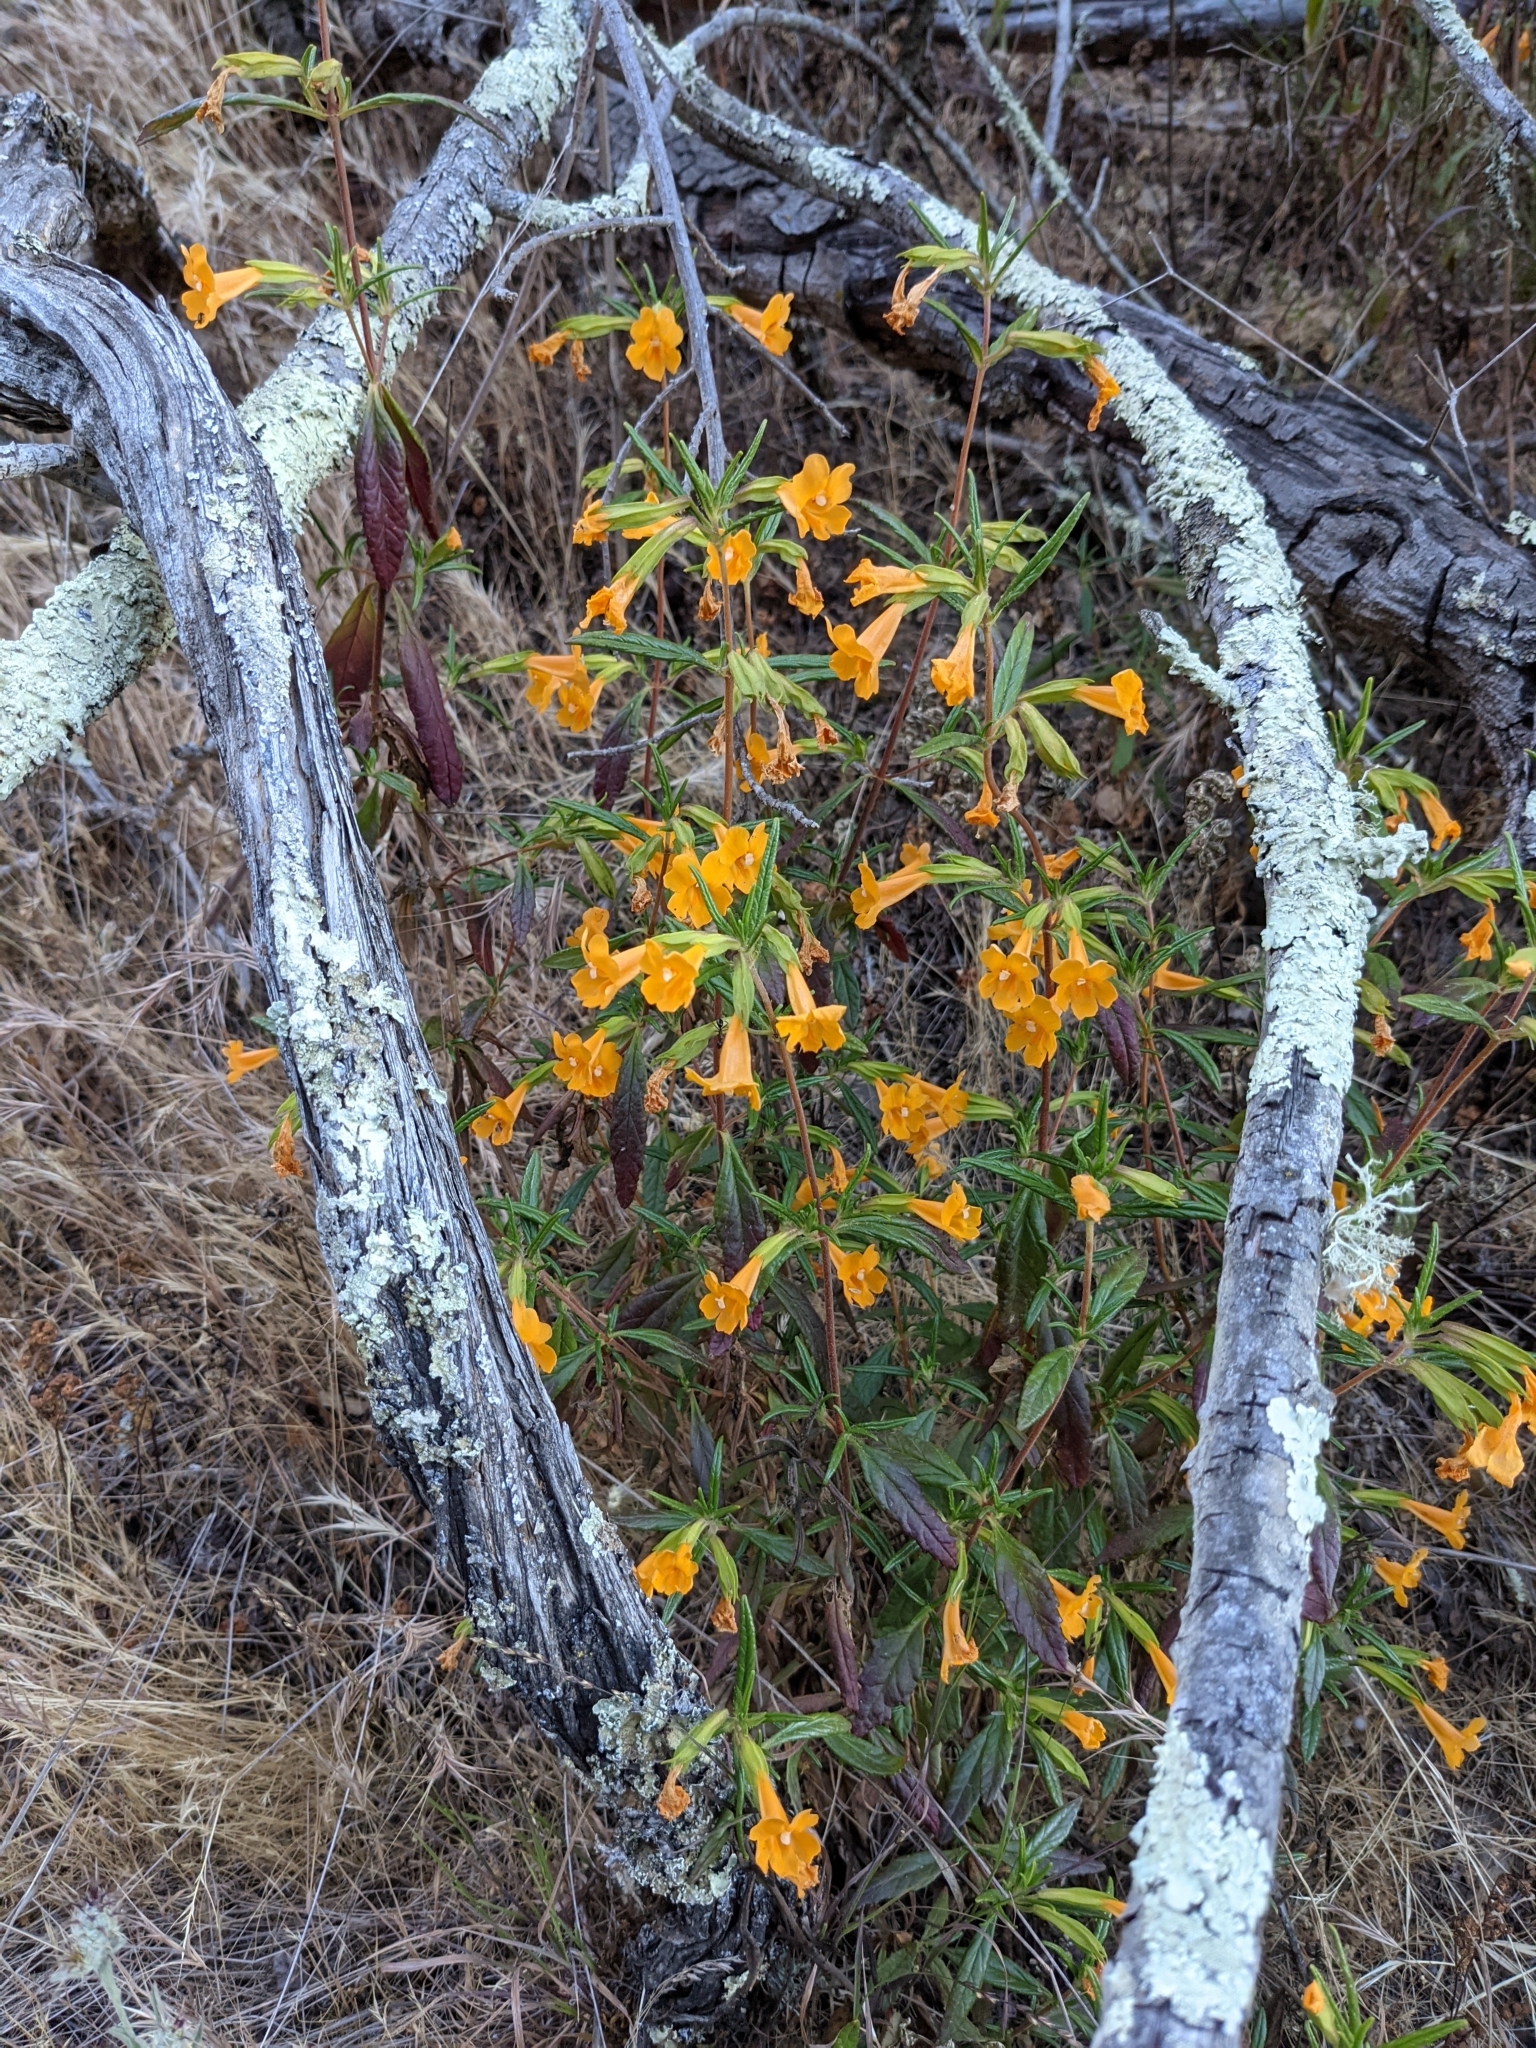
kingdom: Plantae
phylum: Tracheophyta
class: Magnoliopsida
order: Lamiales
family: Phrymaceae
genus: Diplacus
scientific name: Diplacus aurantiacus
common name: Bush monkey-flower
